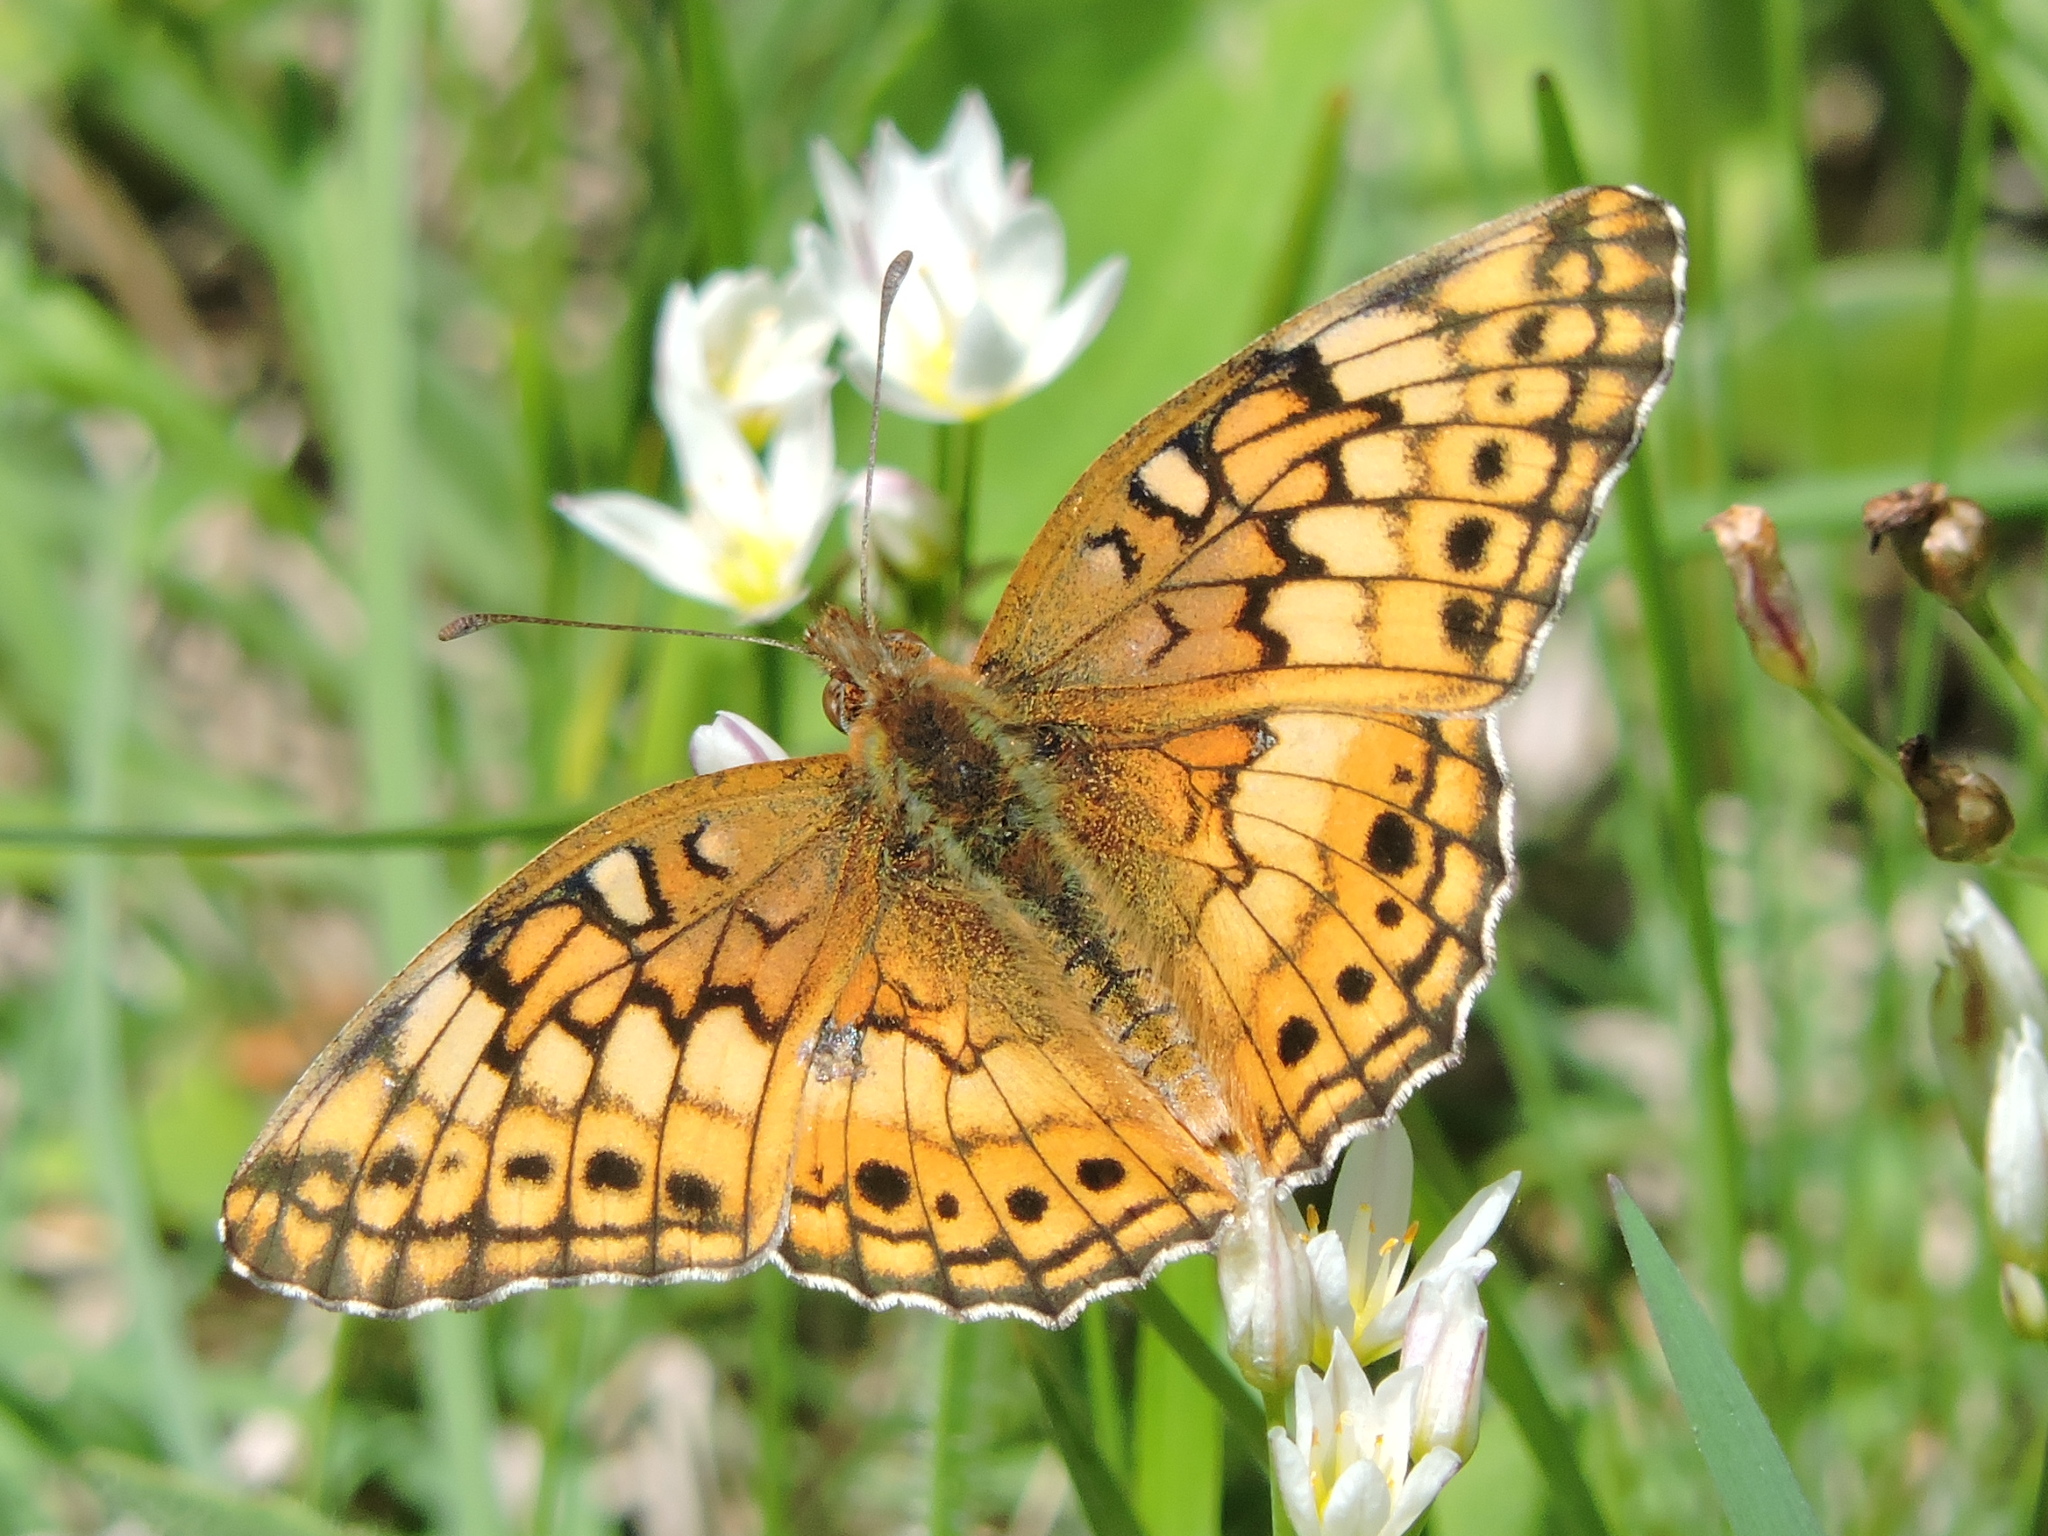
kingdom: Animalia
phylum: Arthropoda
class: Insecta
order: Lepidoptera
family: Nymphalidae
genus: Euptoieta
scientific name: Euptoieta claudia
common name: Variegated fritillary
